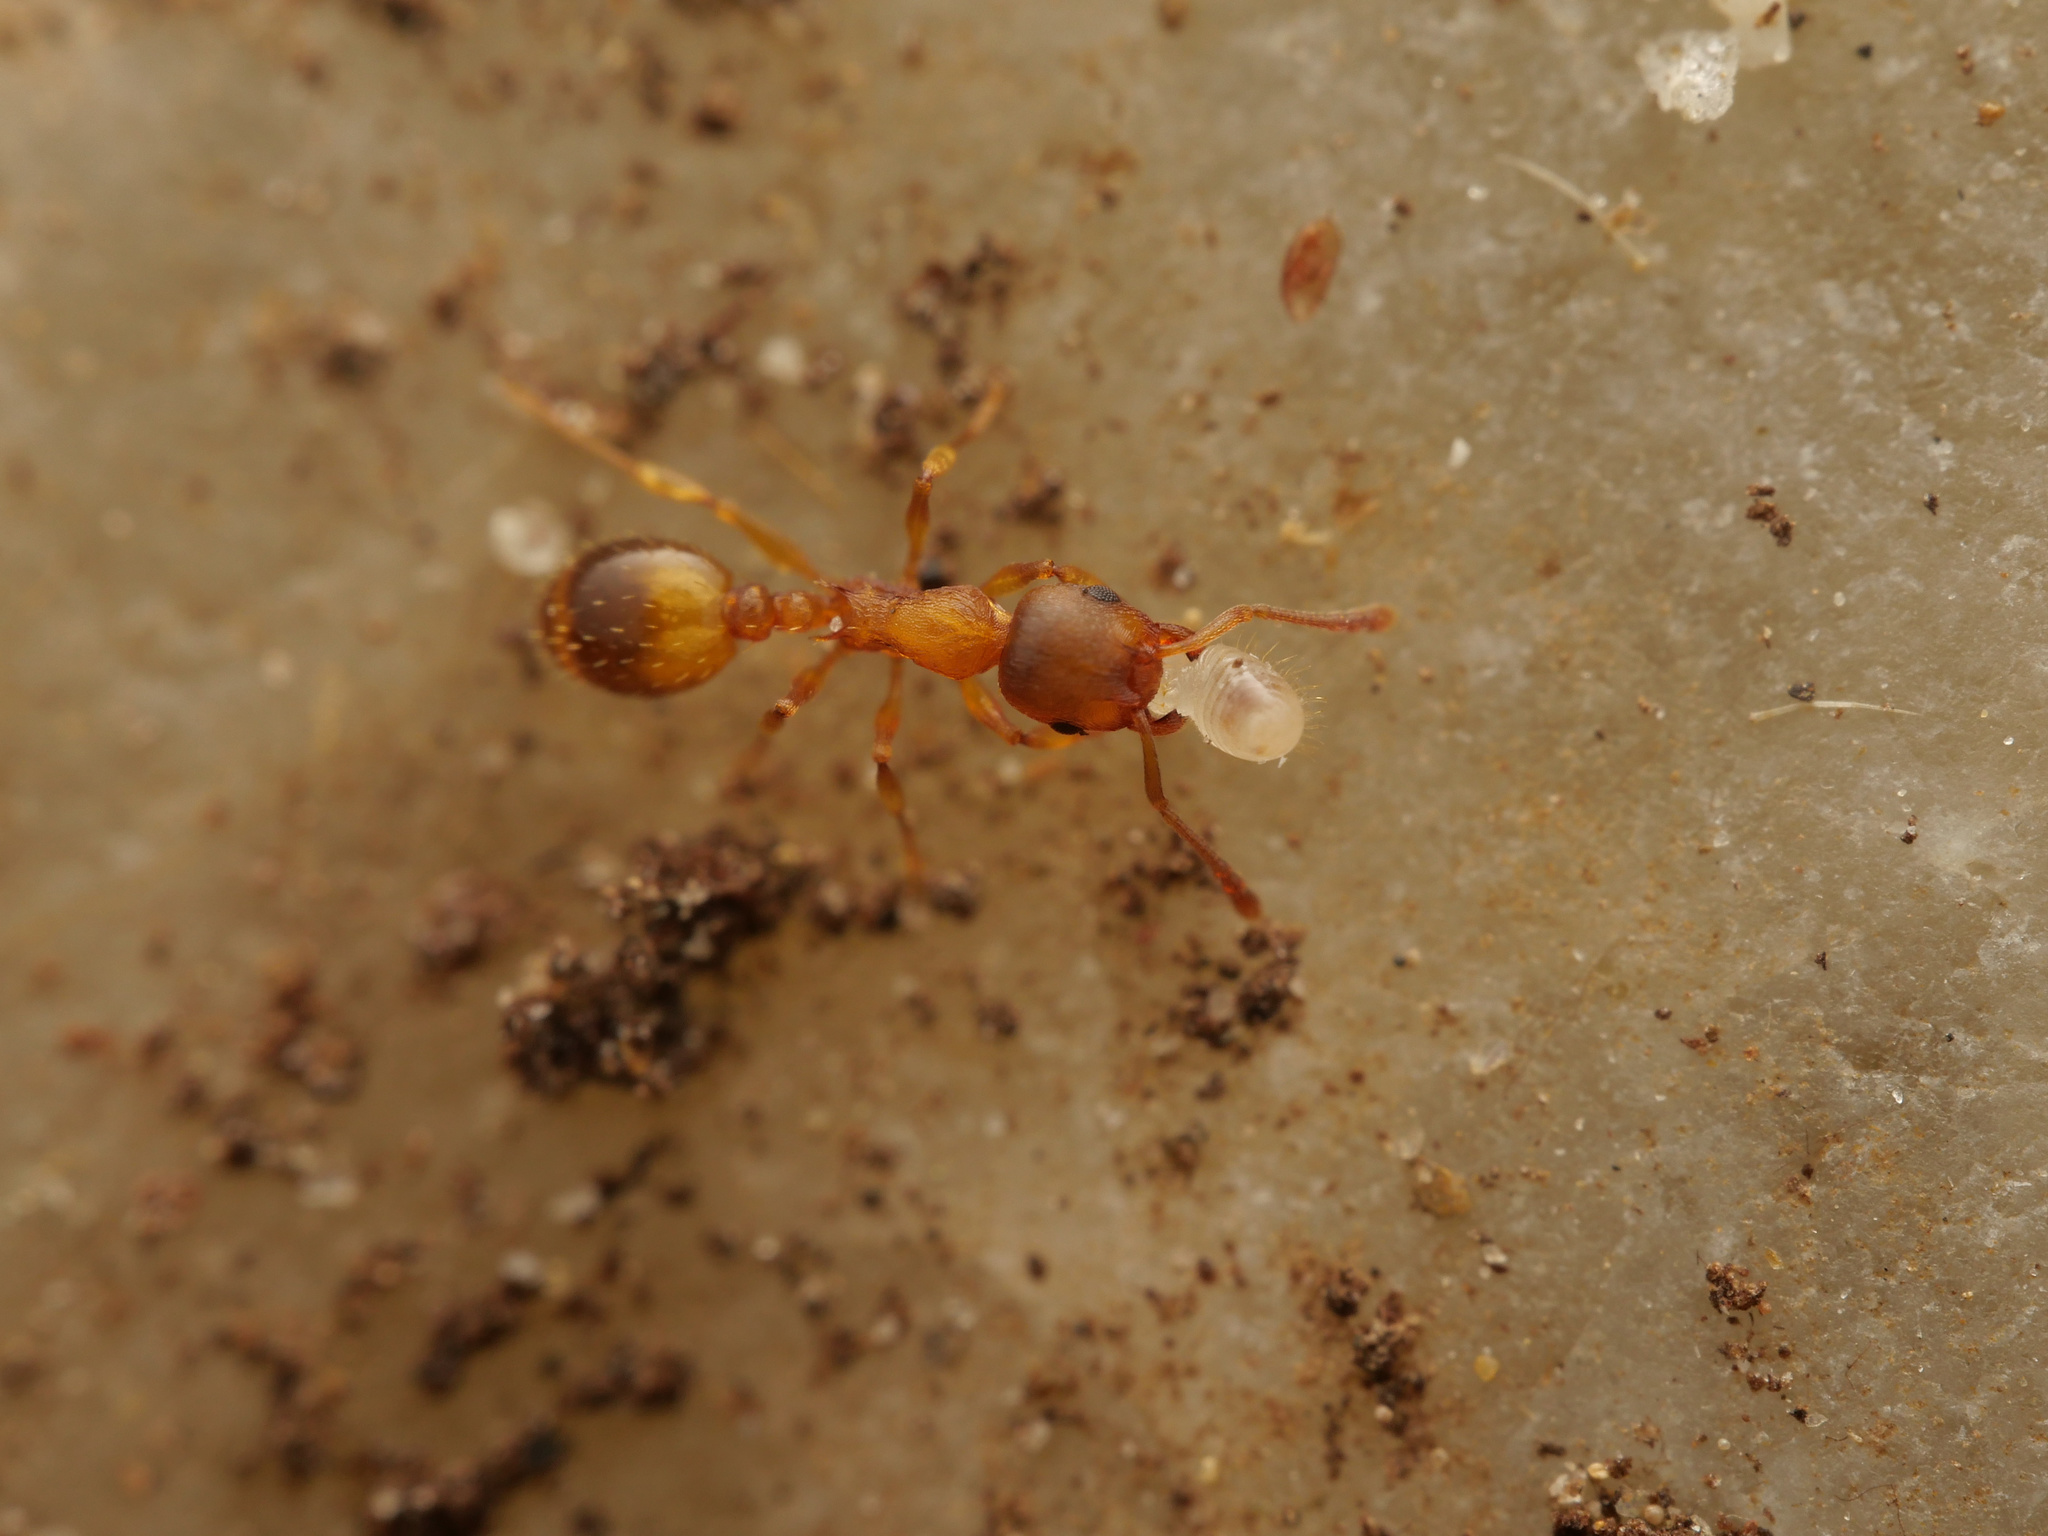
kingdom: Animalia
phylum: Arthropoda
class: Insecta
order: Hymenoptera
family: Formicidae
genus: Temnothorax
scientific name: Temnothorax crassispinus
